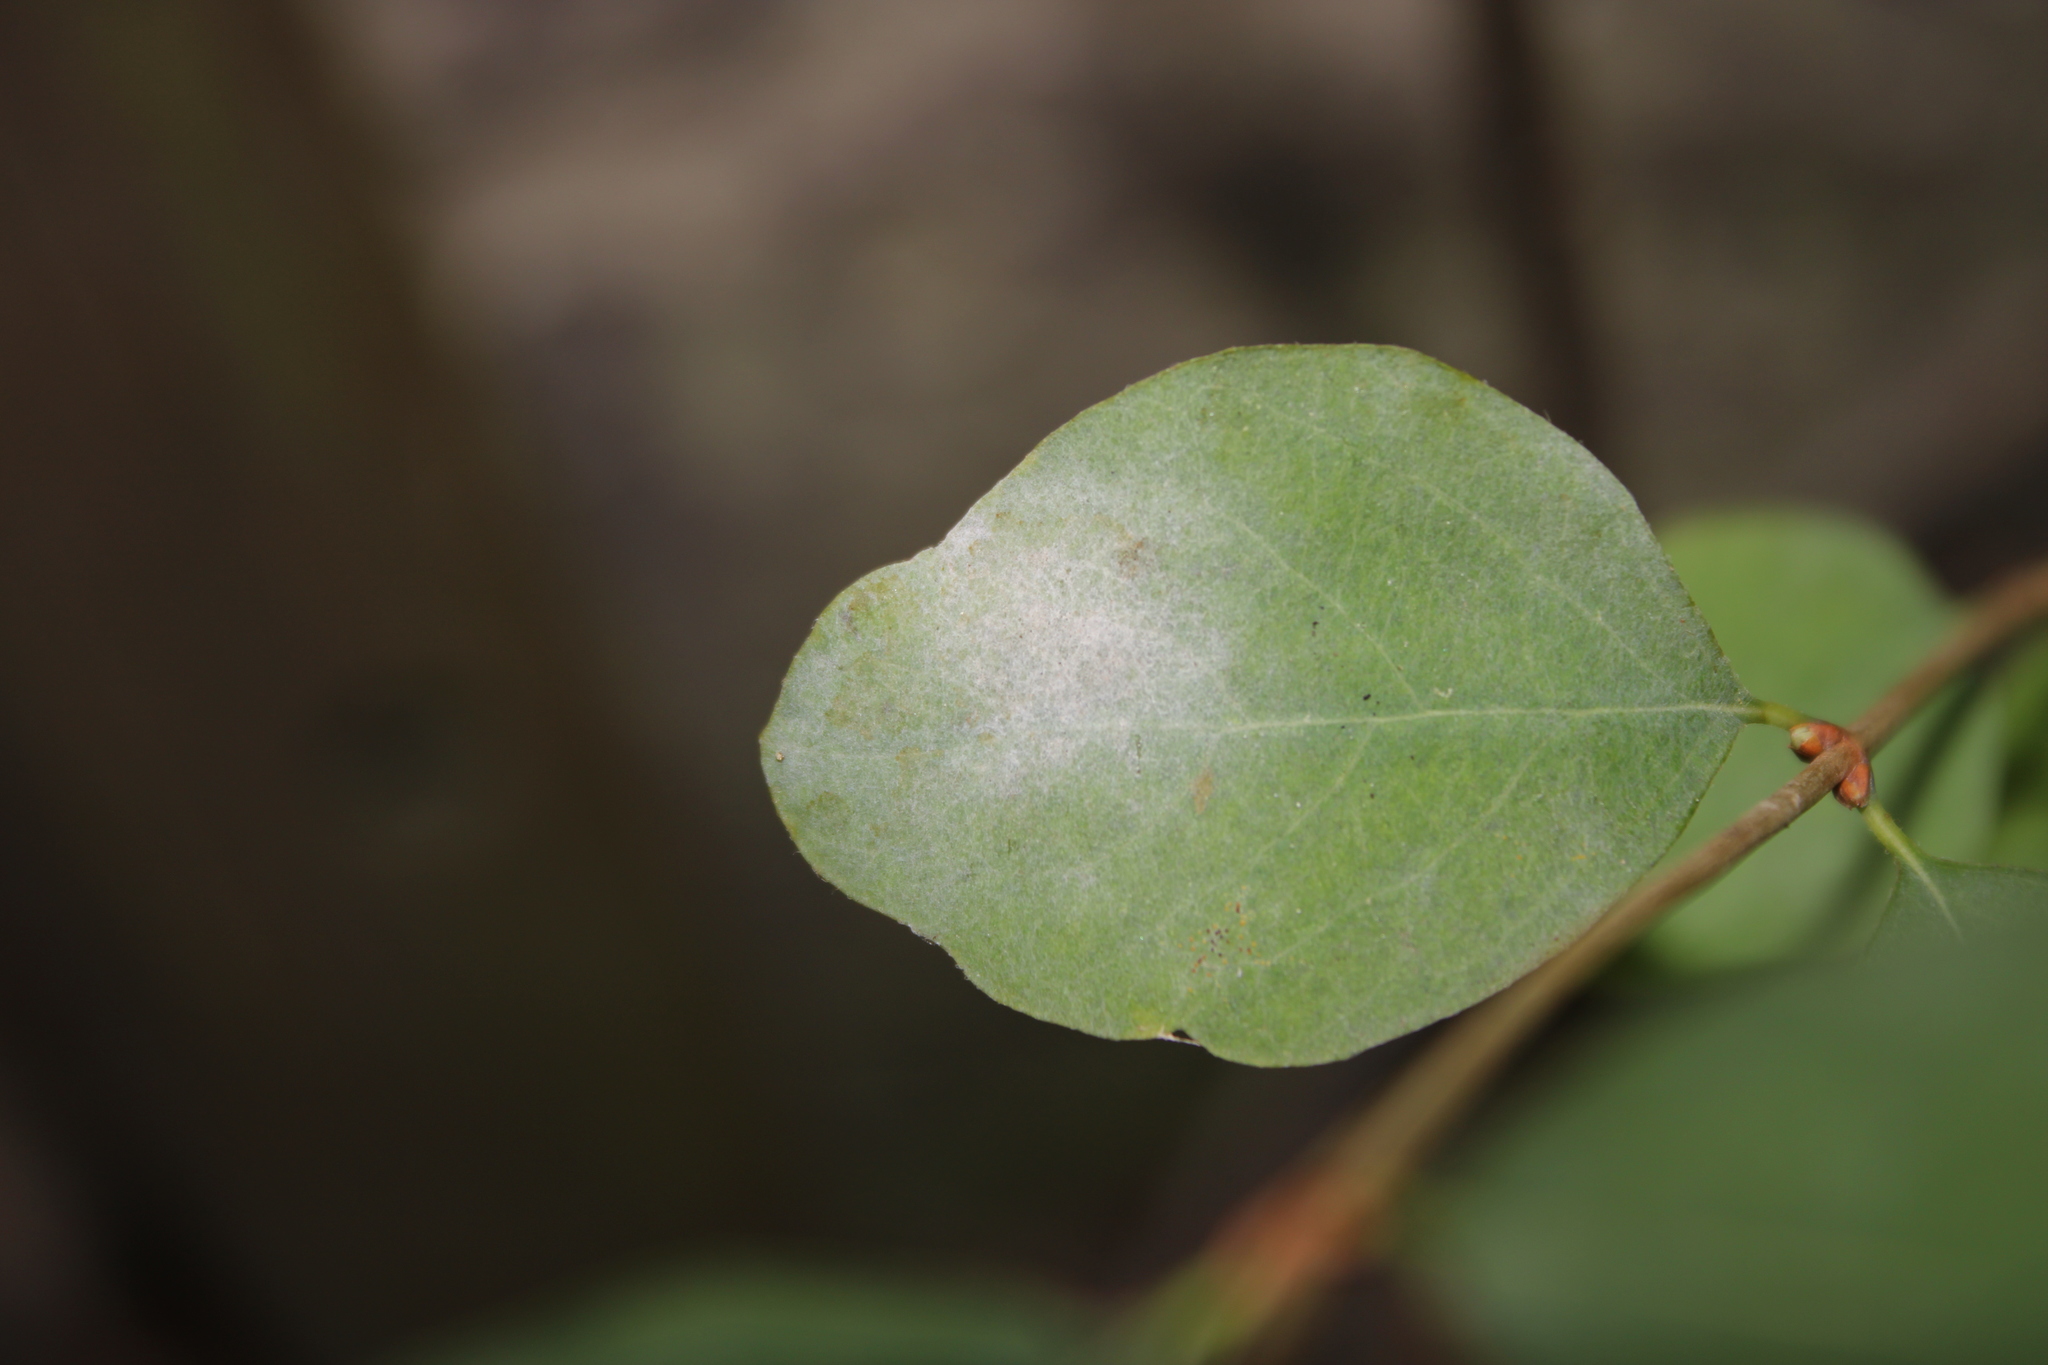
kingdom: Fungi
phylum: Ascomycota
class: Leotiomycetes
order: Helotiales
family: Erysiphaceae
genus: Erysiphe
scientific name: Erysiphe symphoricarpi
